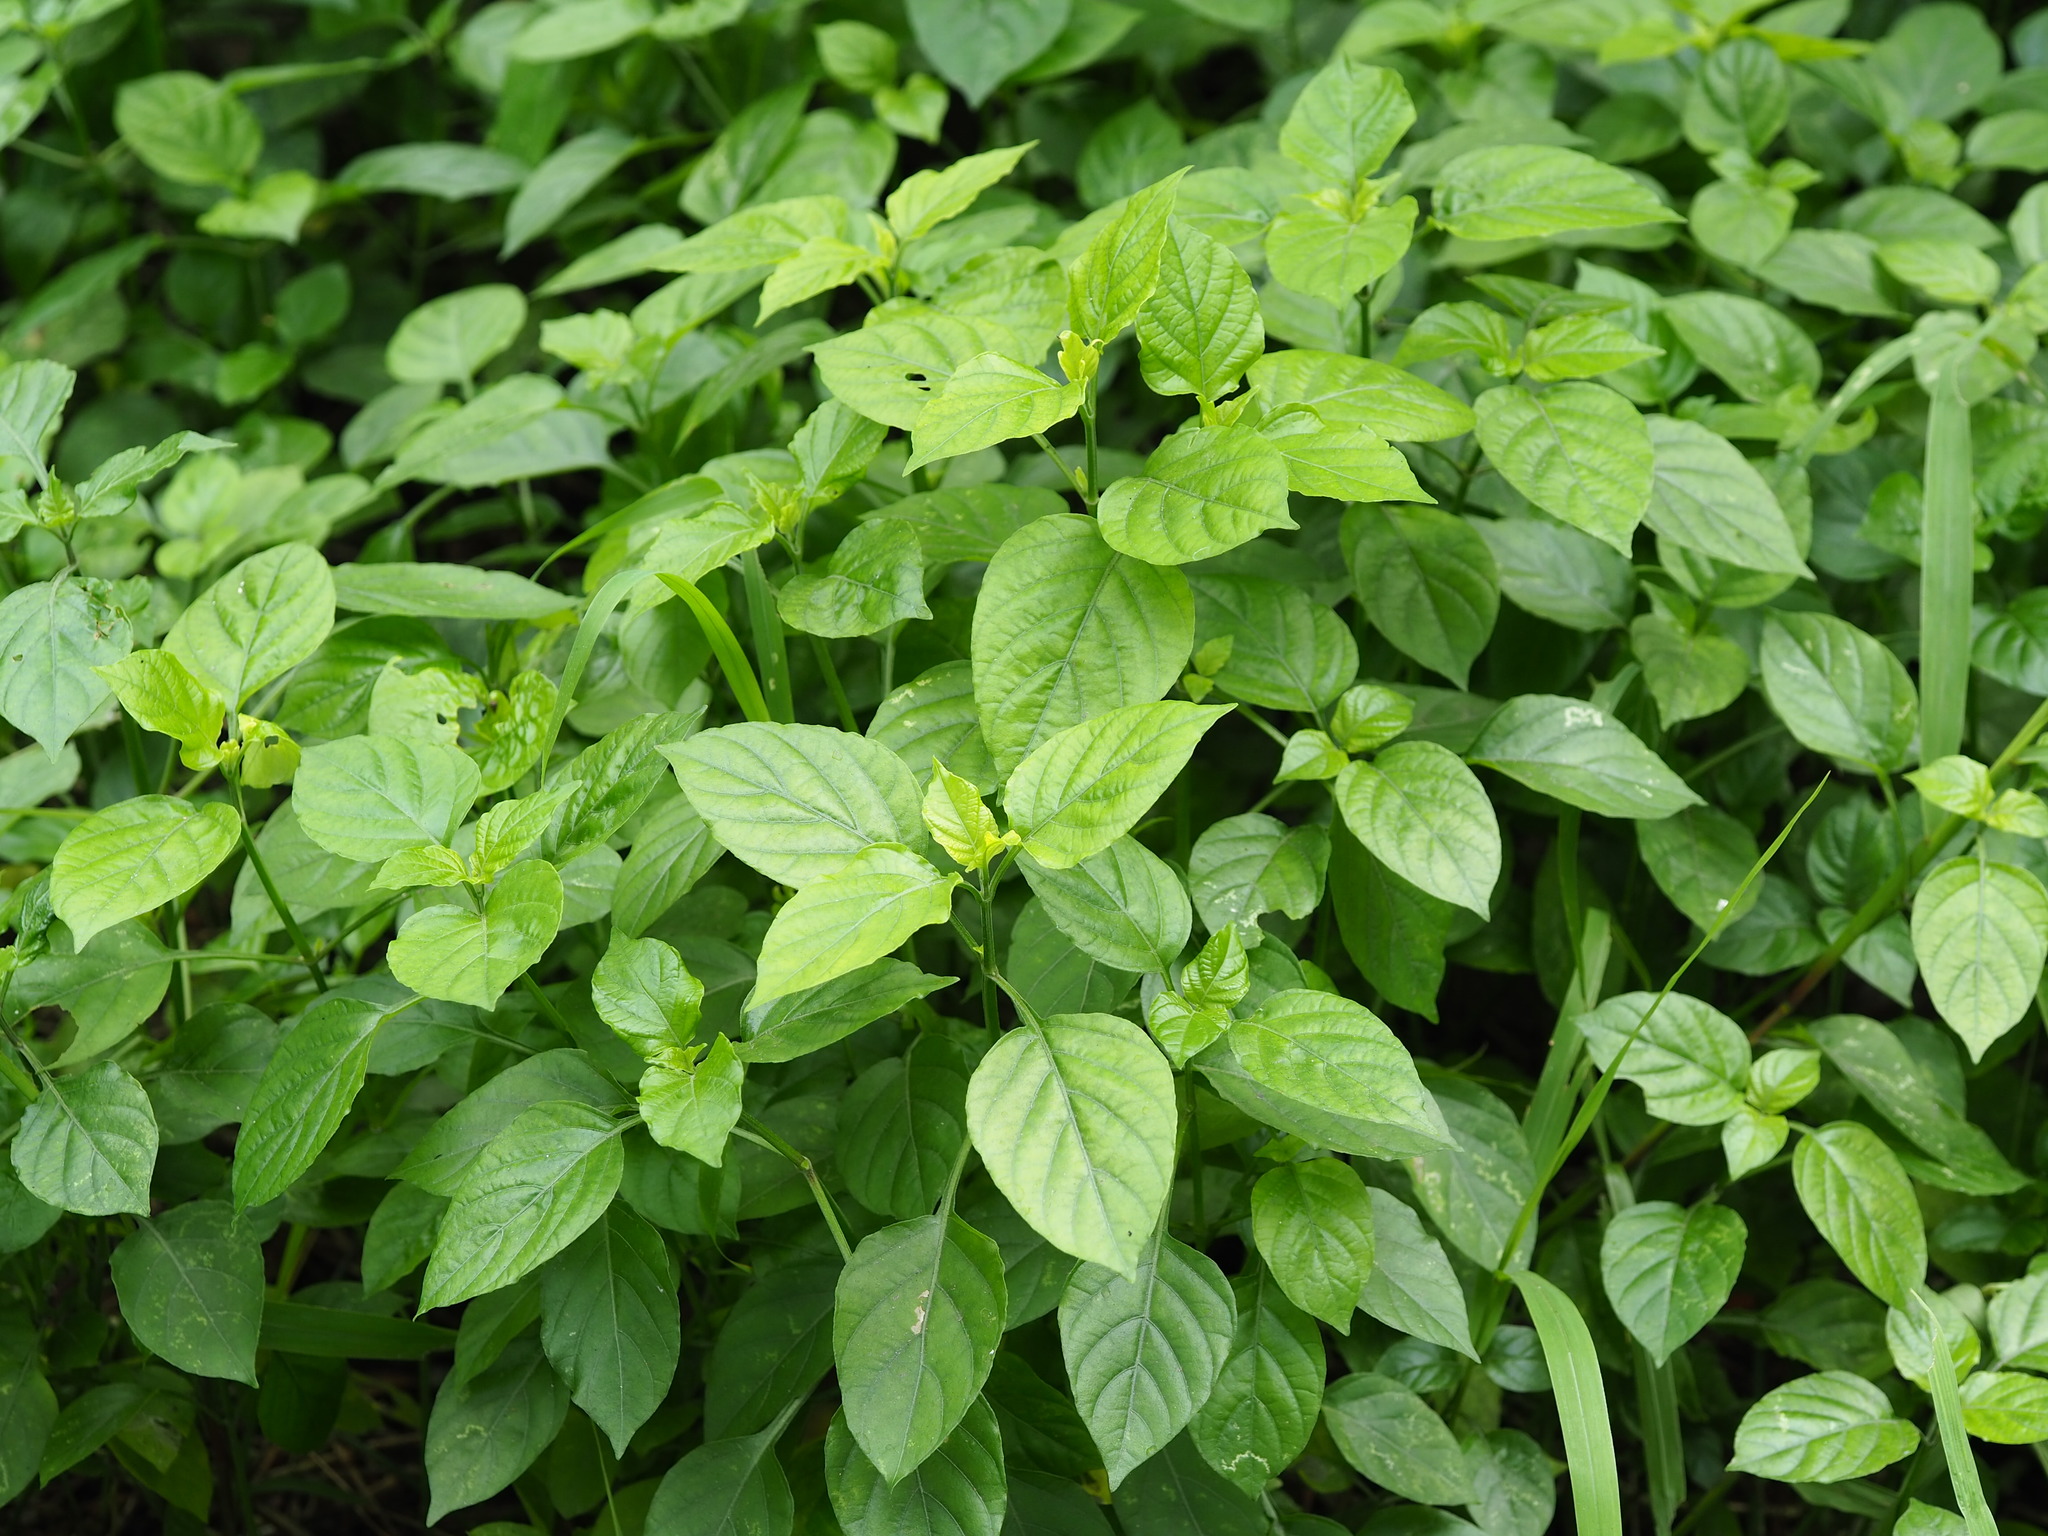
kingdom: Plantae
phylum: Tracheophyta
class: Magnoliopsida
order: Lamiales
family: Acanthaceae
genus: Asystasia
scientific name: Asystasia gangetica
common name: Chinese violet
